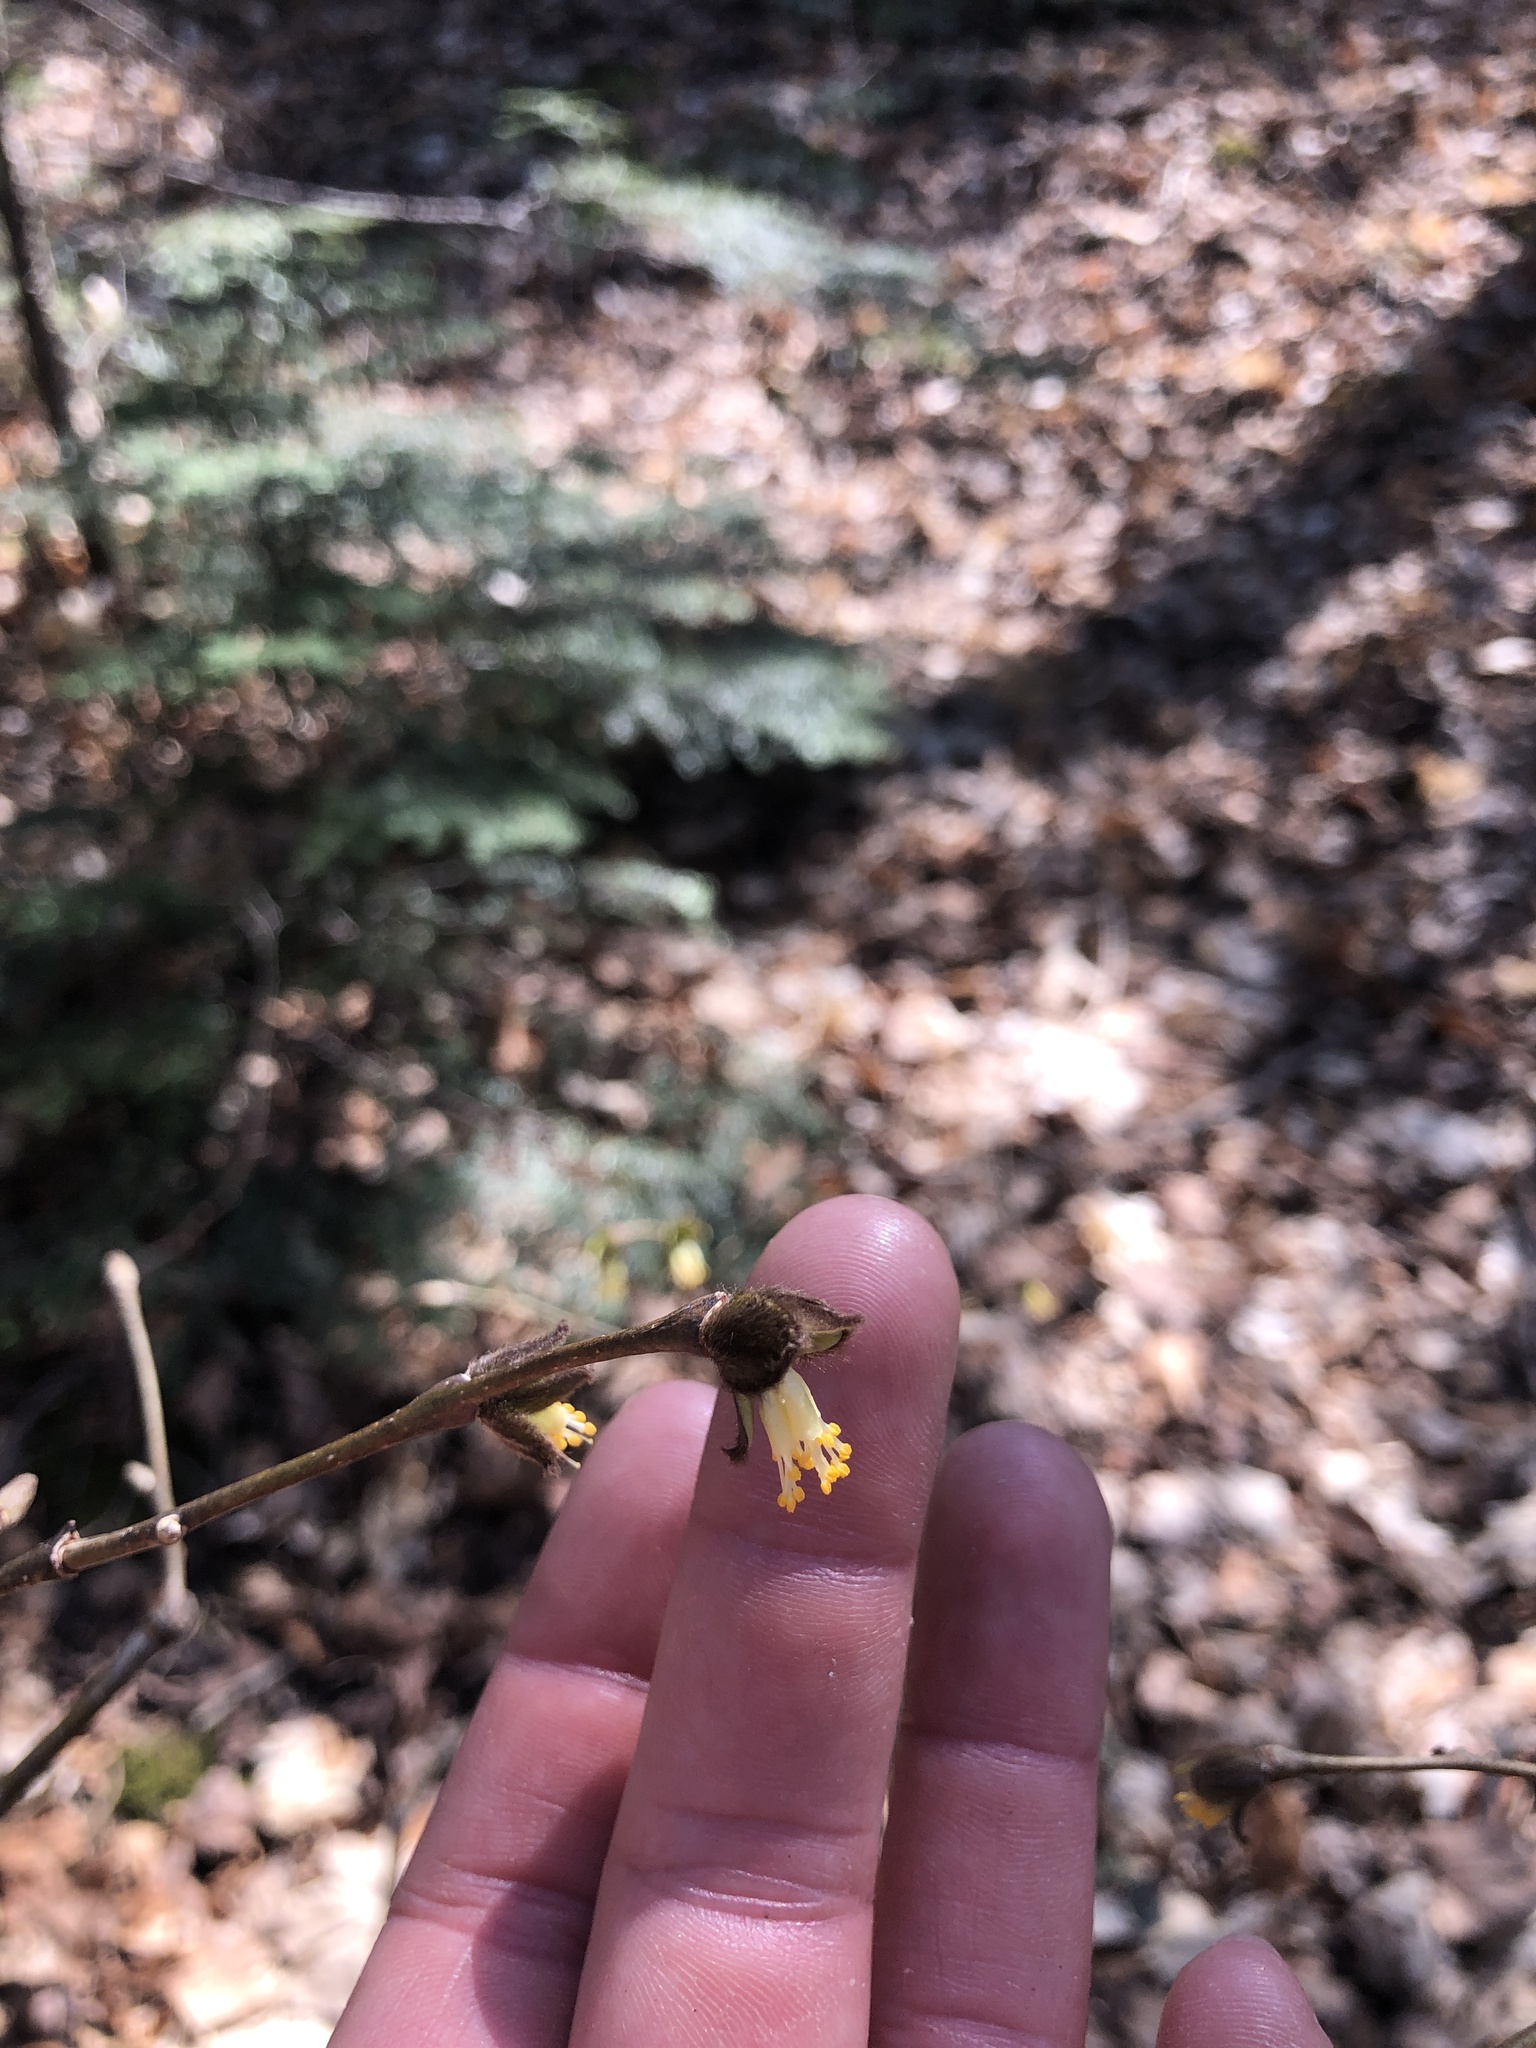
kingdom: Plantae
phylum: Tracheophyta
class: Magnoliopsida
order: Malvales
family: Thymelaeaceae
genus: Dirca
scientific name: Dirca palustris
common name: Leatherwood
